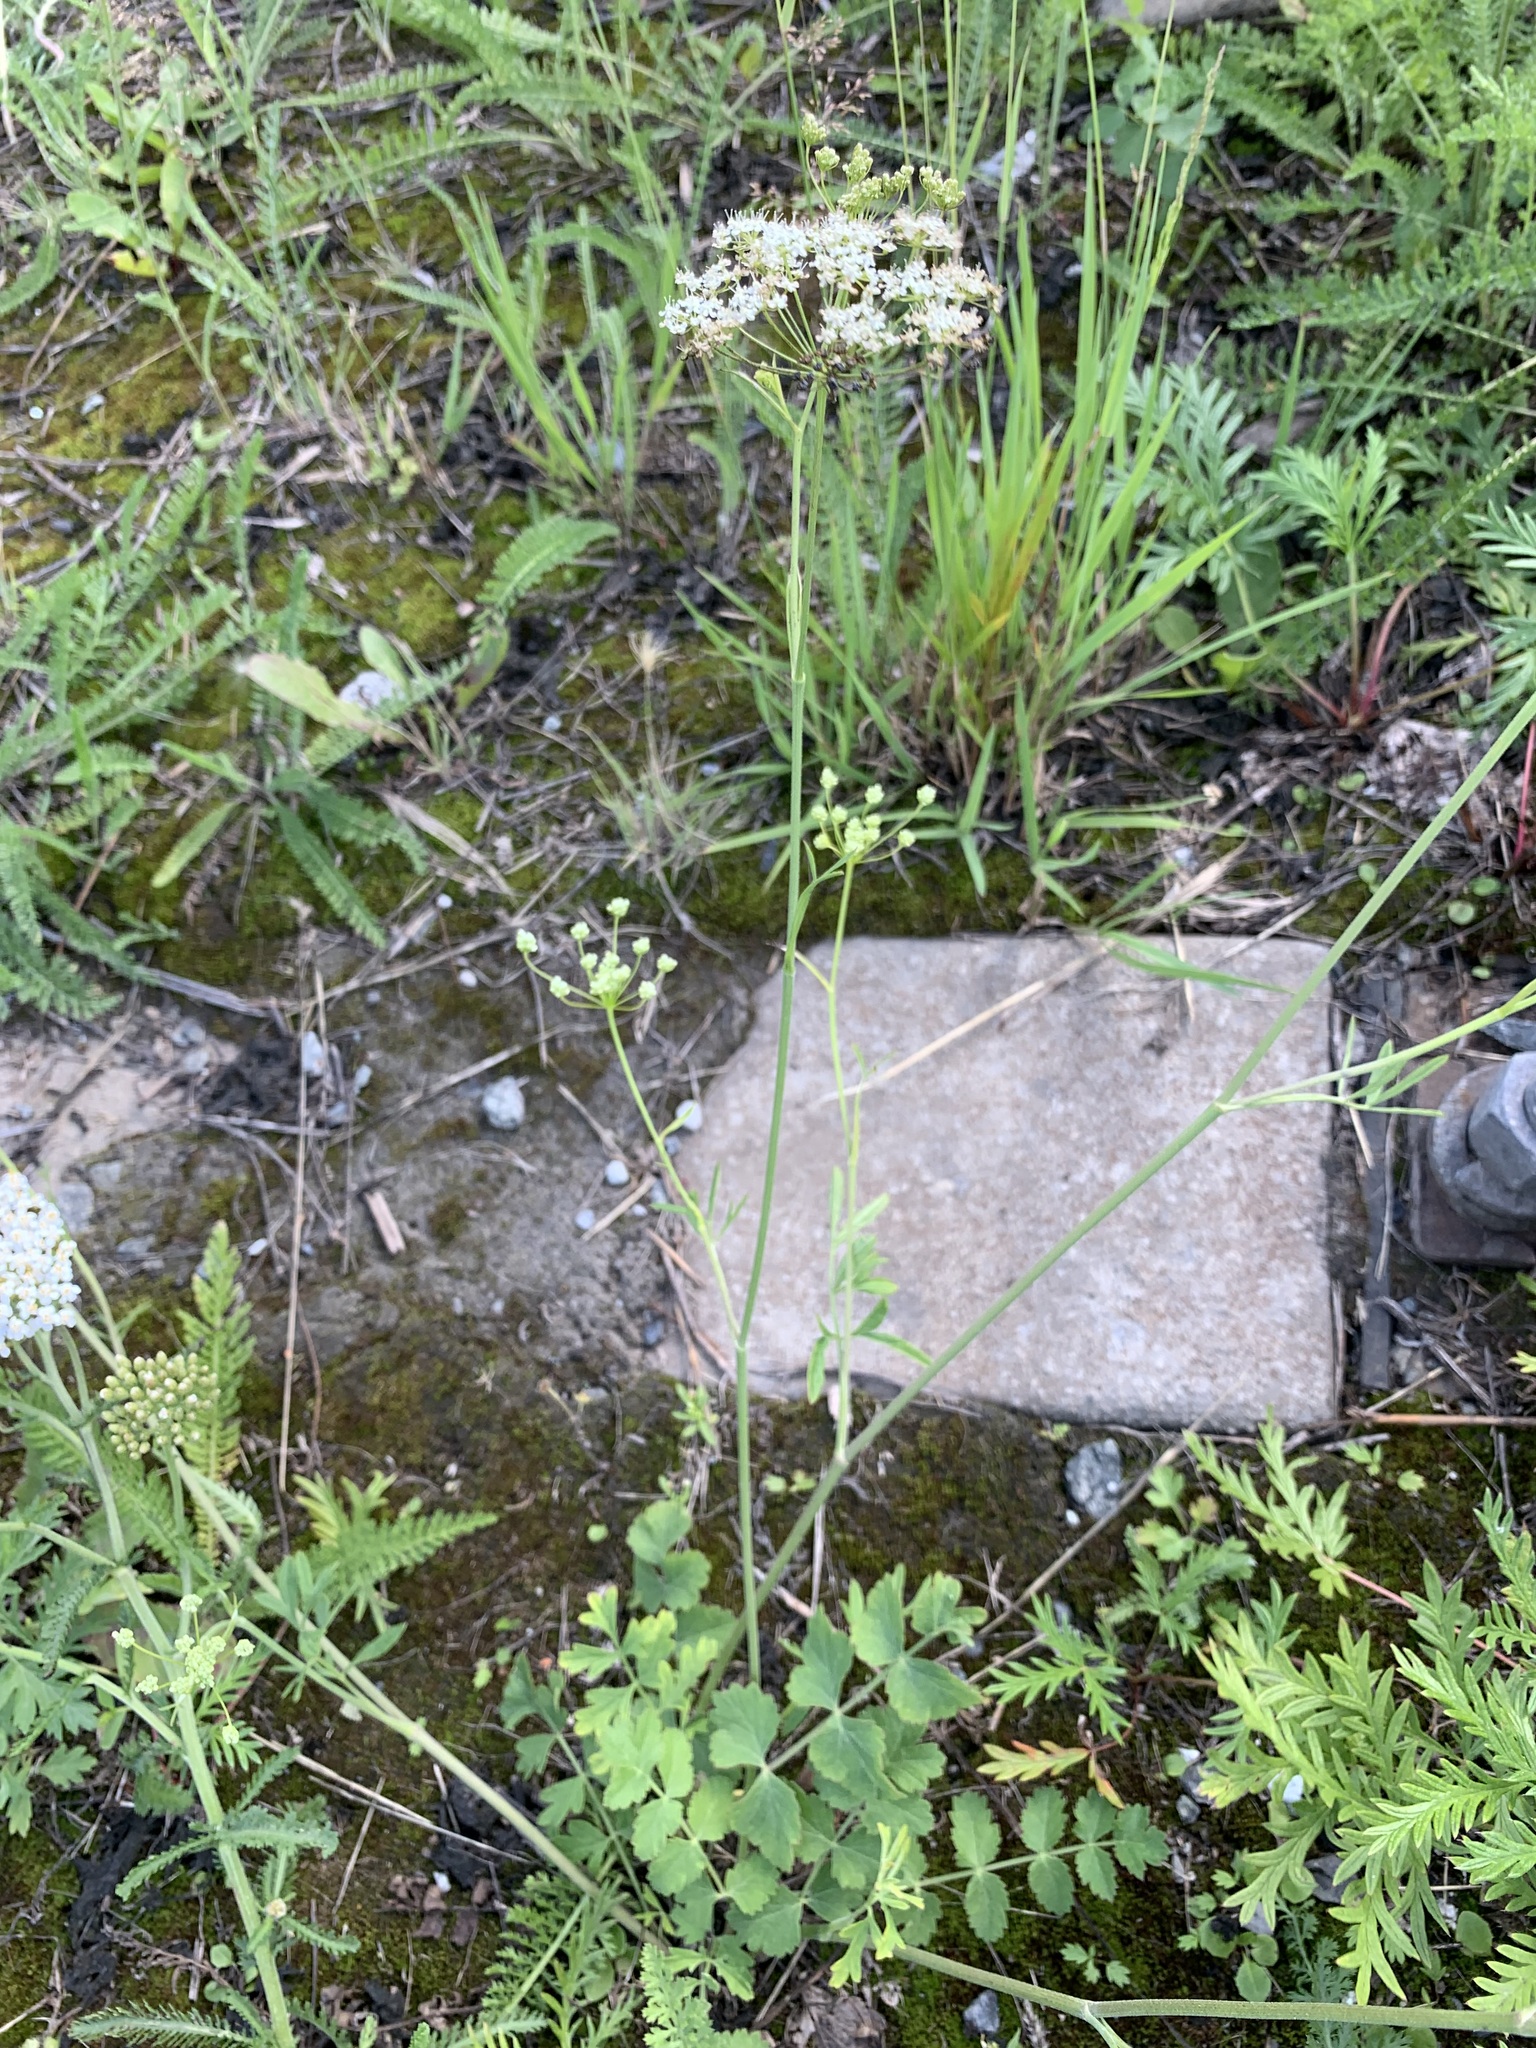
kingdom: Plantae
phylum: Tracheophyta
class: Magnoliopsida
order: Apiales
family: Apiaceae
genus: Pimpinella
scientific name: Pimpinella saxifraga
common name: Burnet-saxifrage
